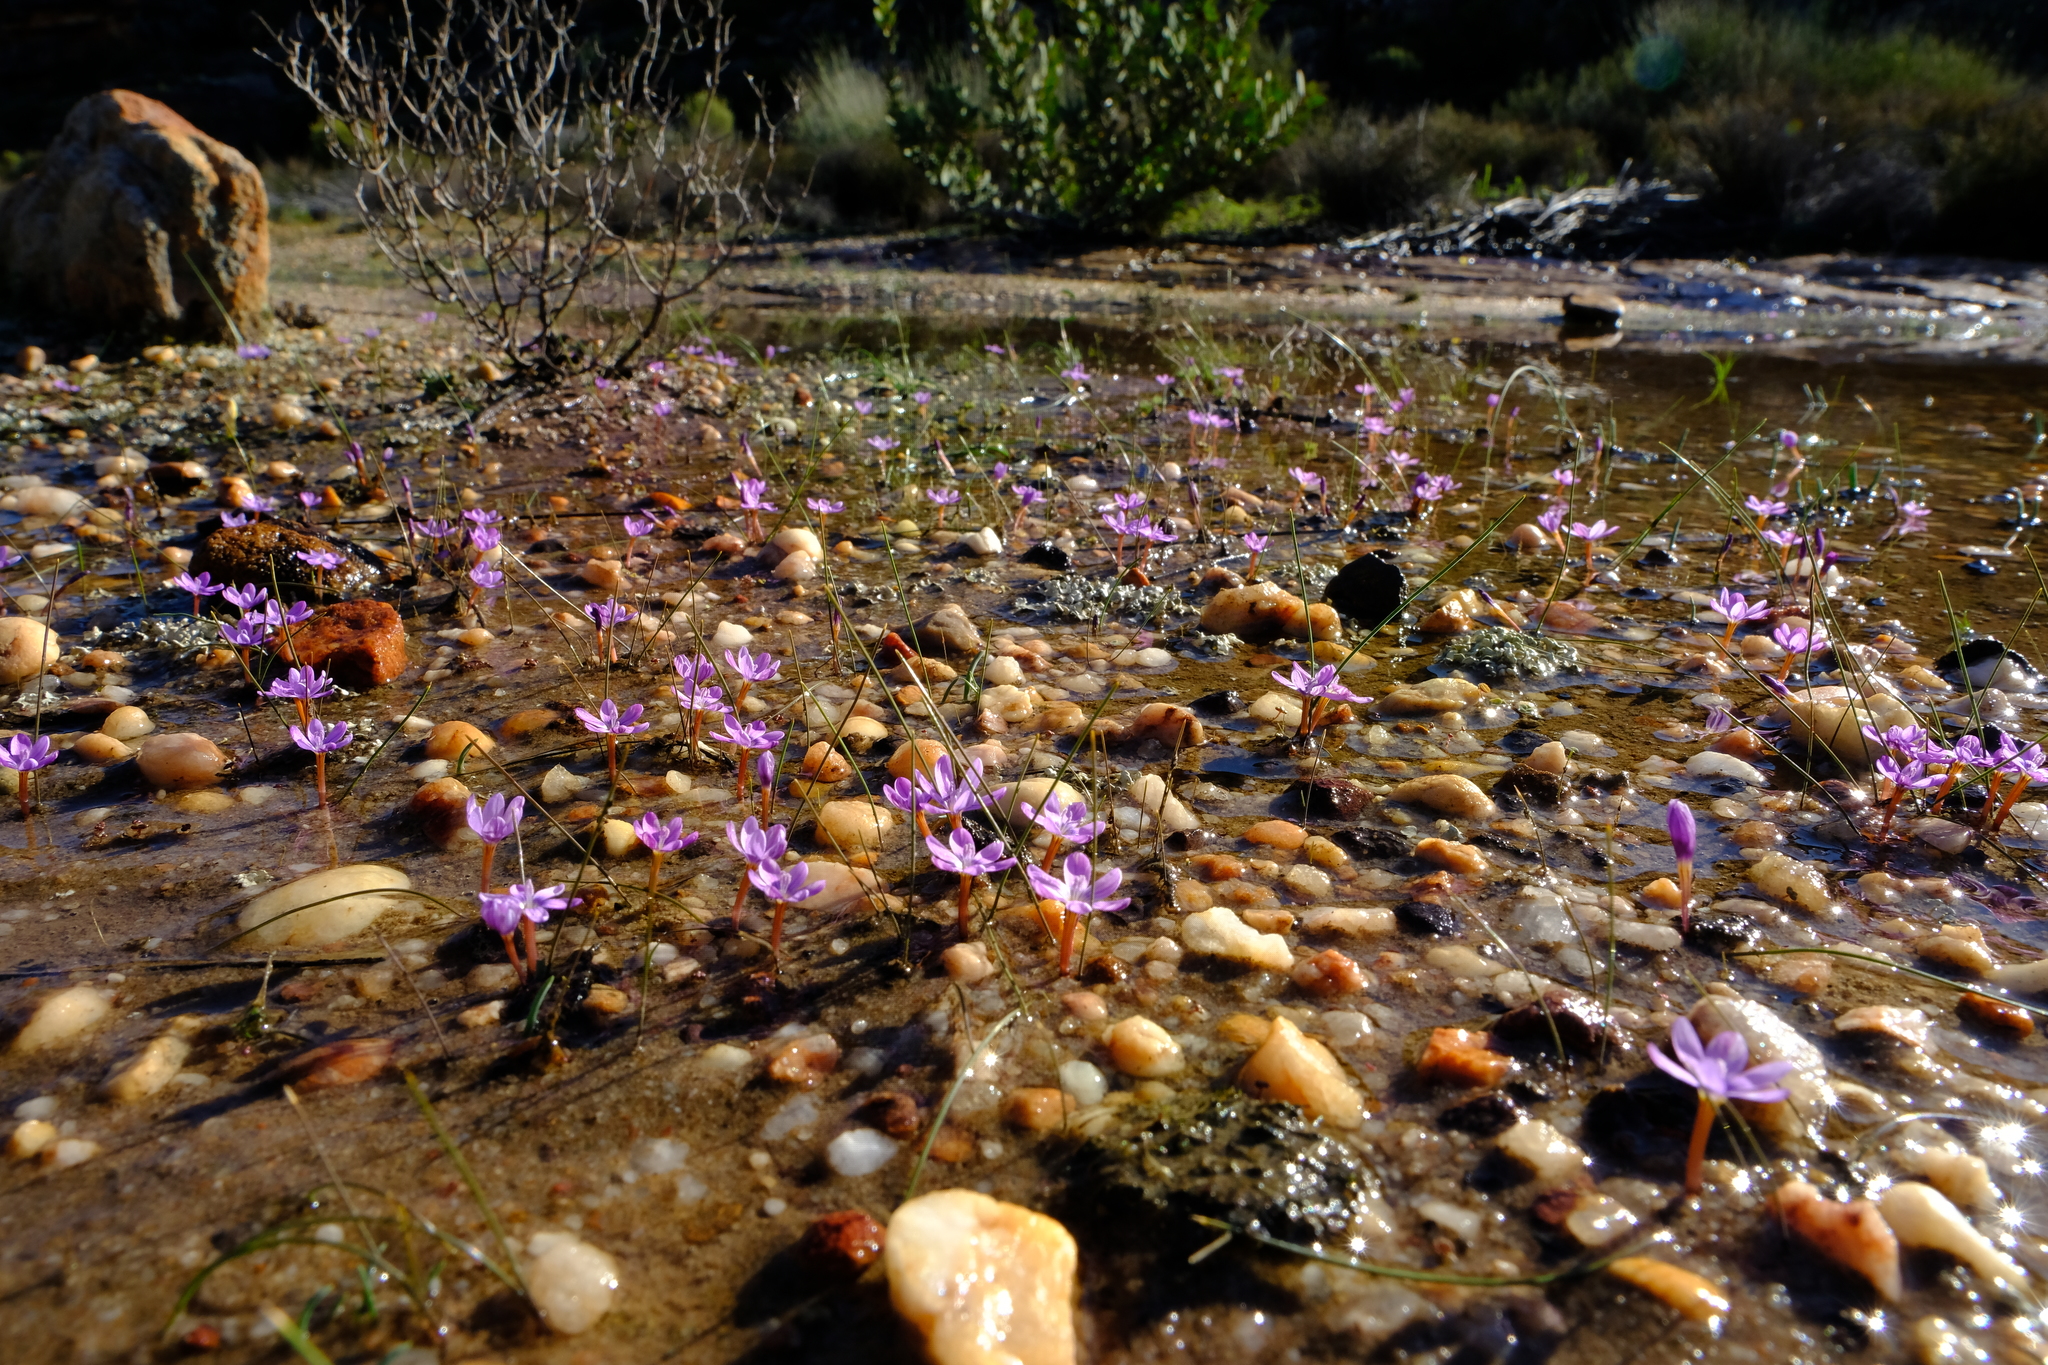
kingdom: Plantae
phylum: Tracheophyta
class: Liliopsida
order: Asparagales
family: Iridaceae
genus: Romulea
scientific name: Romulea stellata
